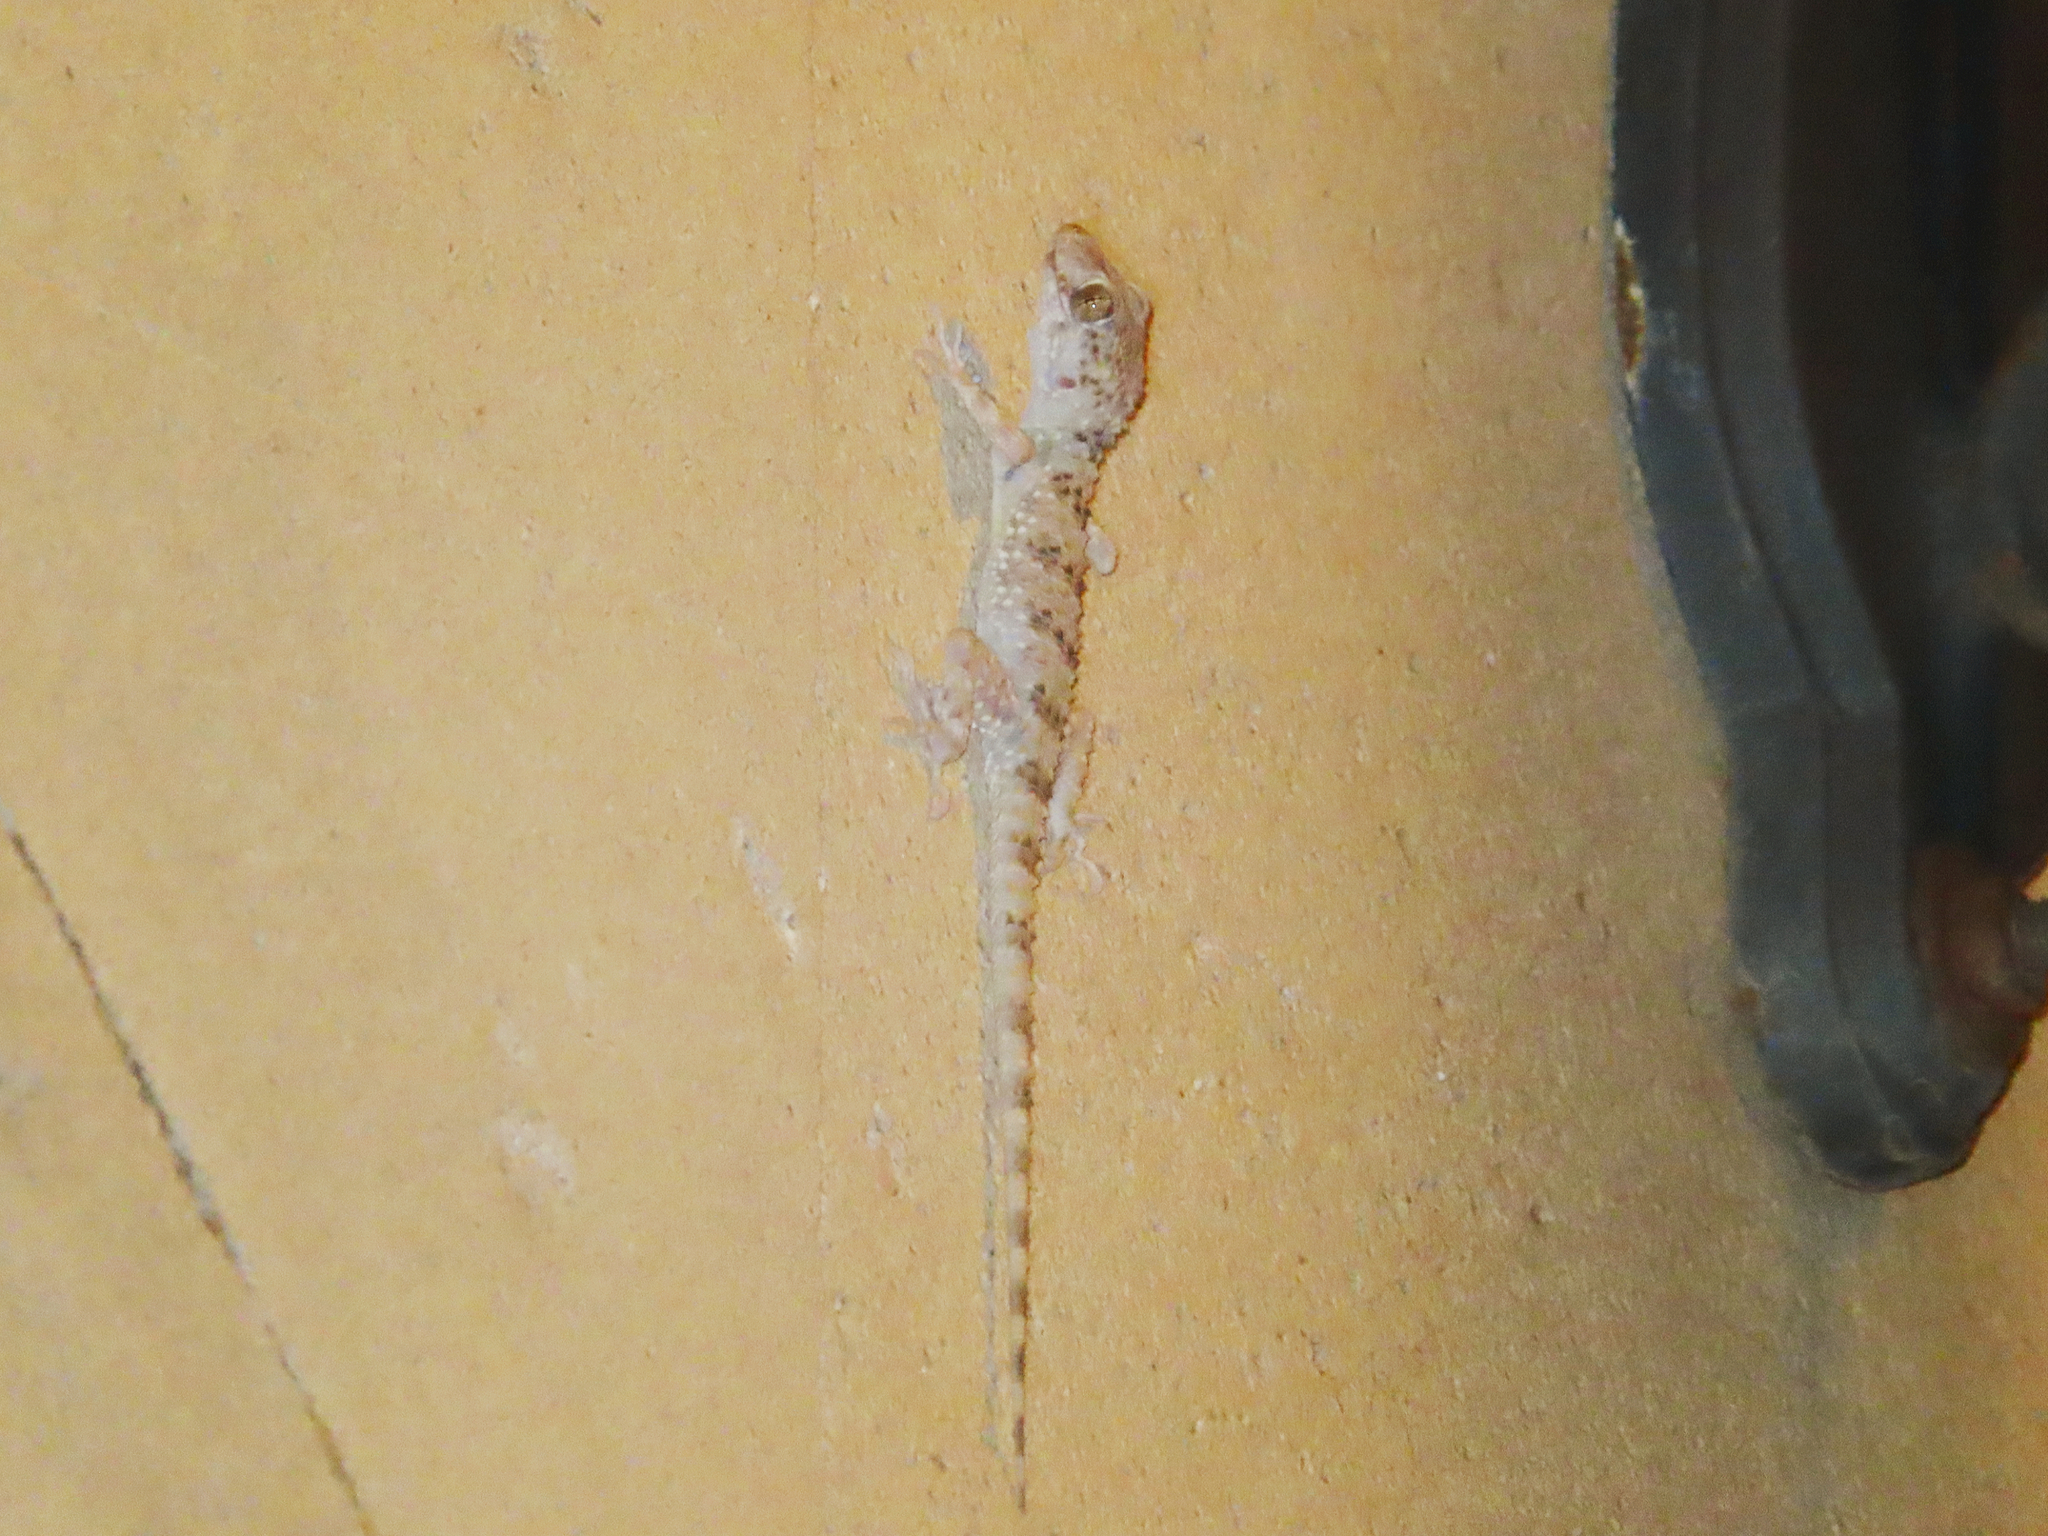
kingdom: Animalia
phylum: Chordata
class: Squamata
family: Gekkonidae
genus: Tenuidactylus
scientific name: Tenuidactylus caspius
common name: Caspian bent-toed gecko
